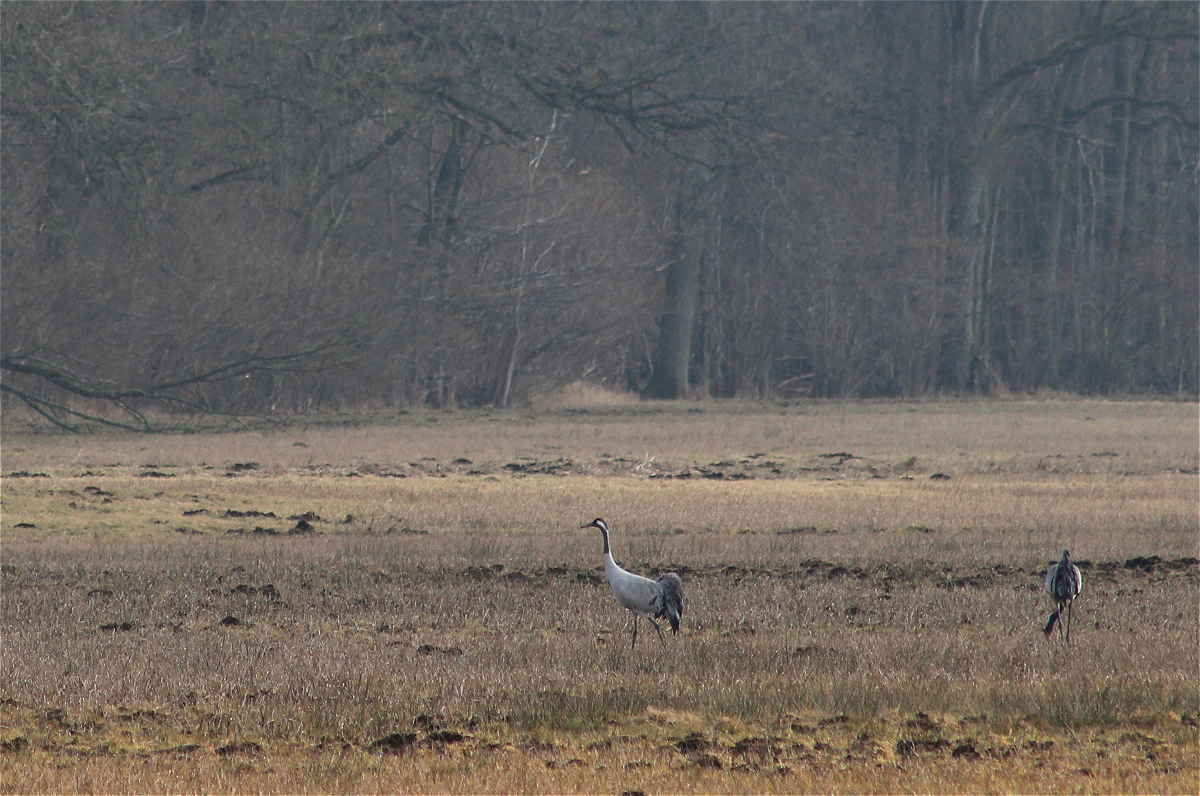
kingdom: Animalia
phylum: Chordata
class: Aves
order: Gruiformes
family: Gruidae
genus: Grus
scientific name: Grus grus
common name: Common crane
